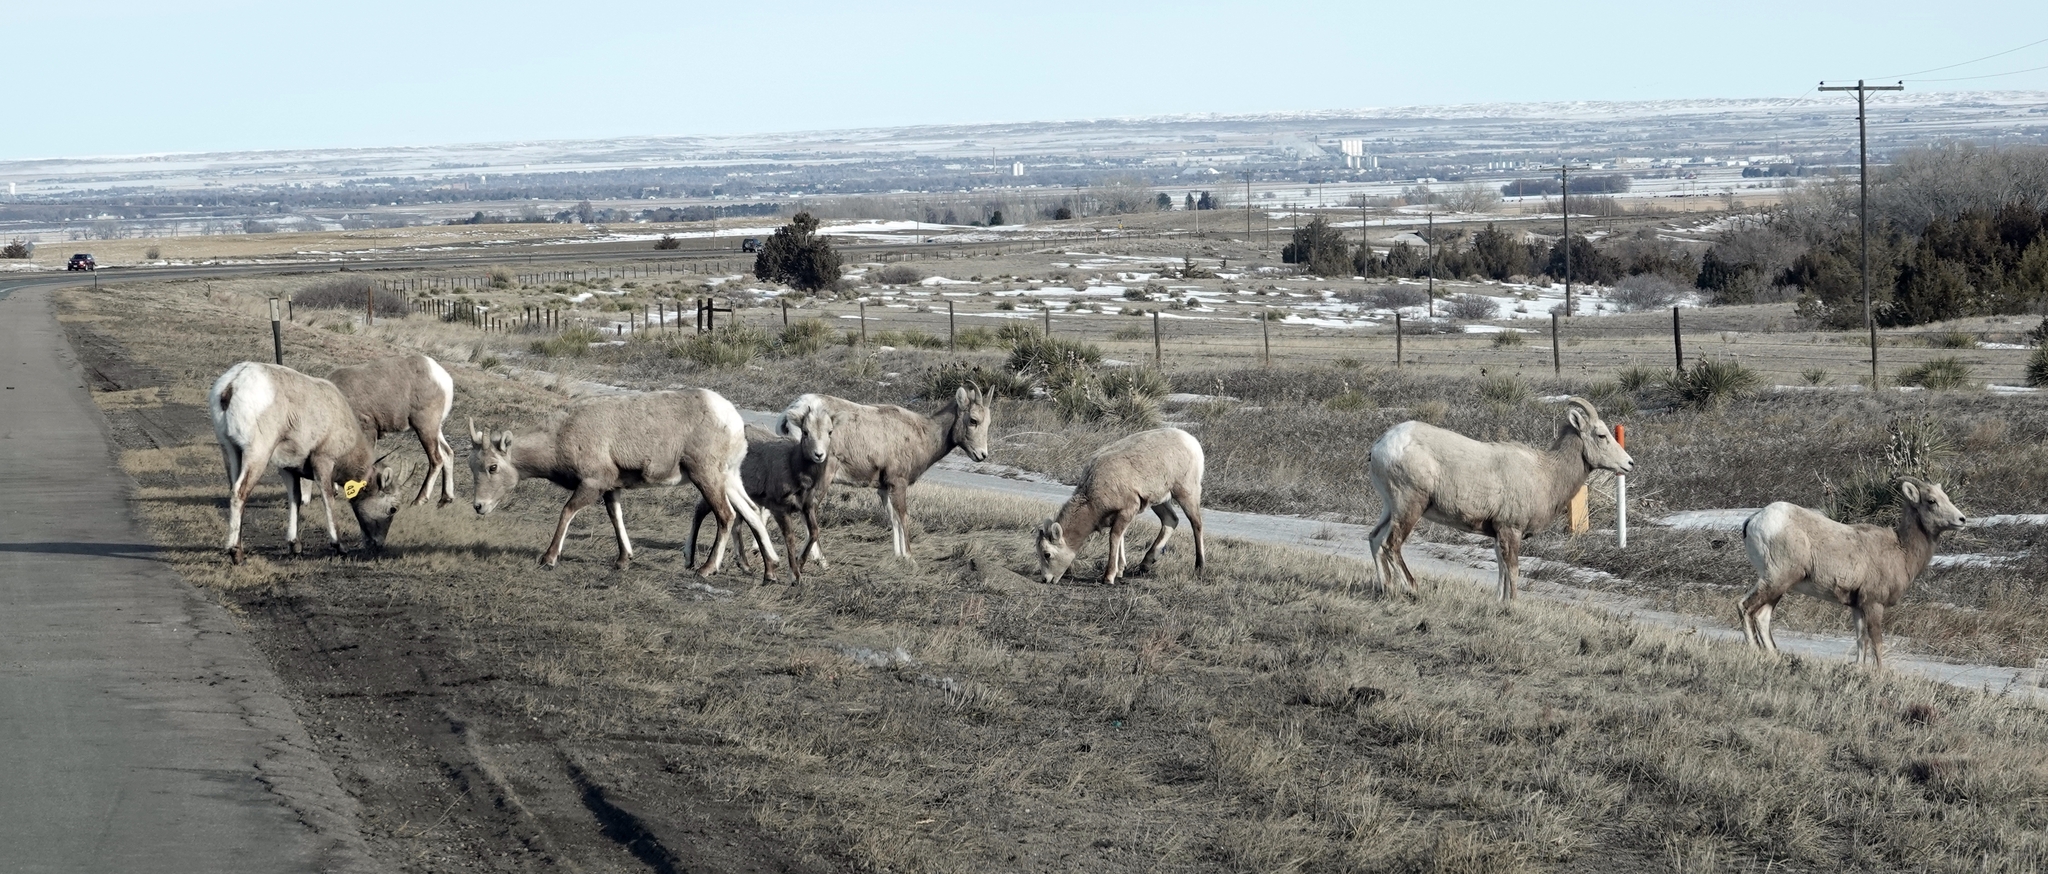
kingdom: Animalia
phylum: Chordata
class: Mammalia
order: Artiodactyla
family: Bovidae
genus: Ovis
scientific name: Ovis canadensis
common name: Bighorn sheep
